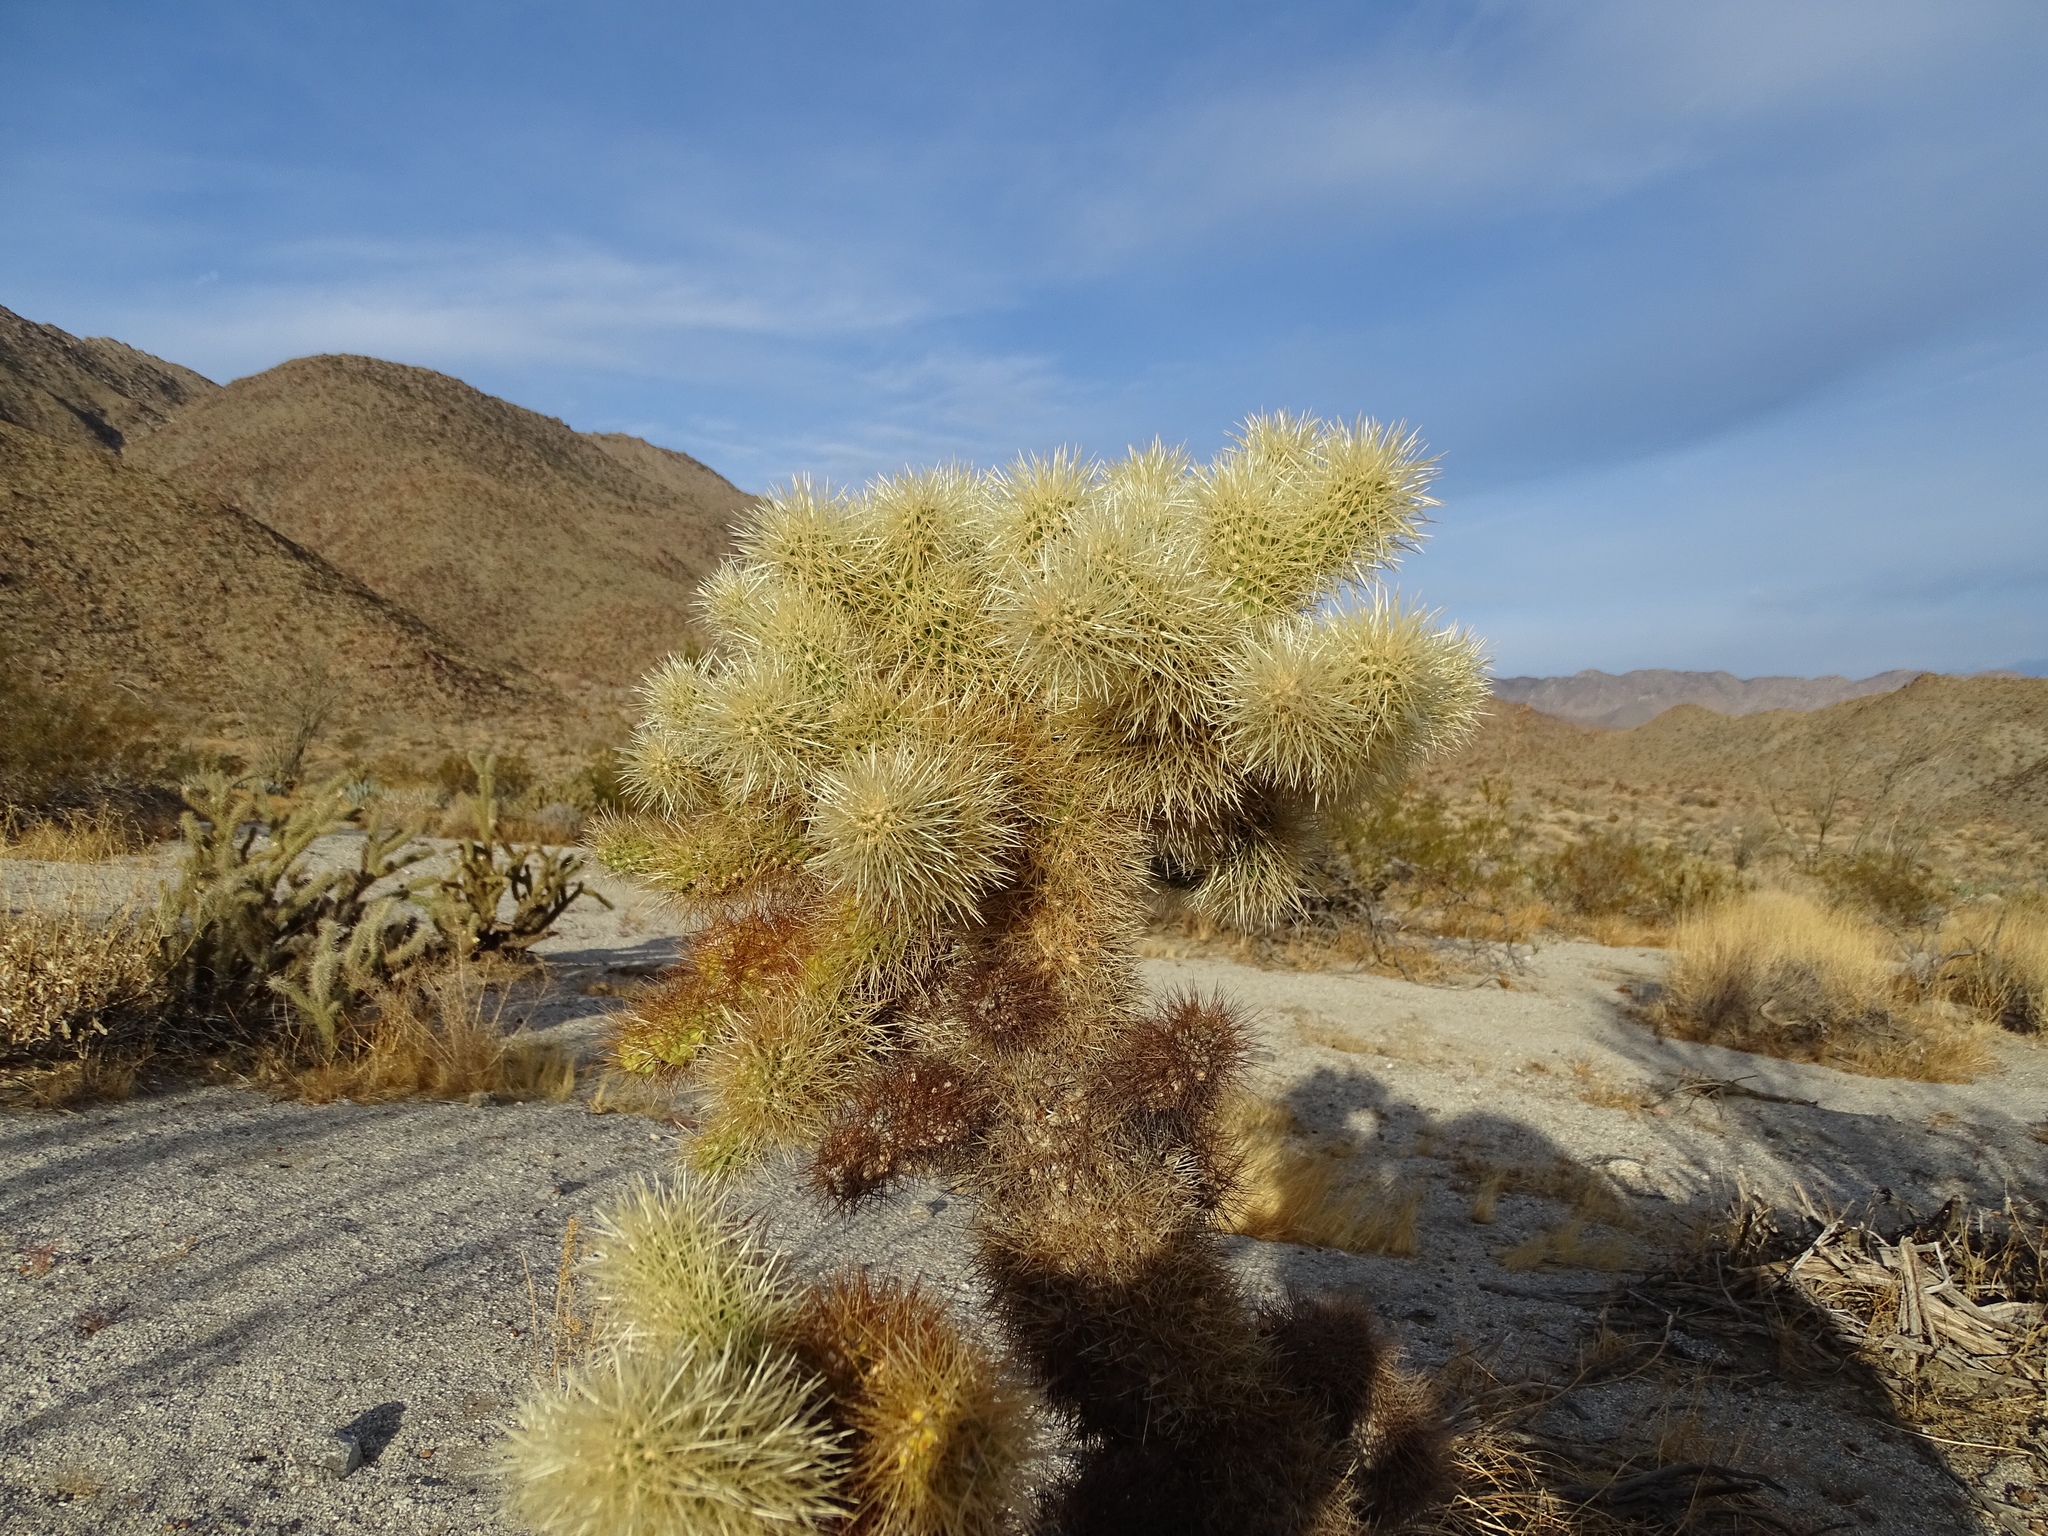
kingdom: Plantae
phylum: Tracheophyta
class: Magnoliopsida
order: Caryophyllales
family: Cactaceae
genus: Cylindropuntia
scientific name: Cylindropuntia fosbergii
